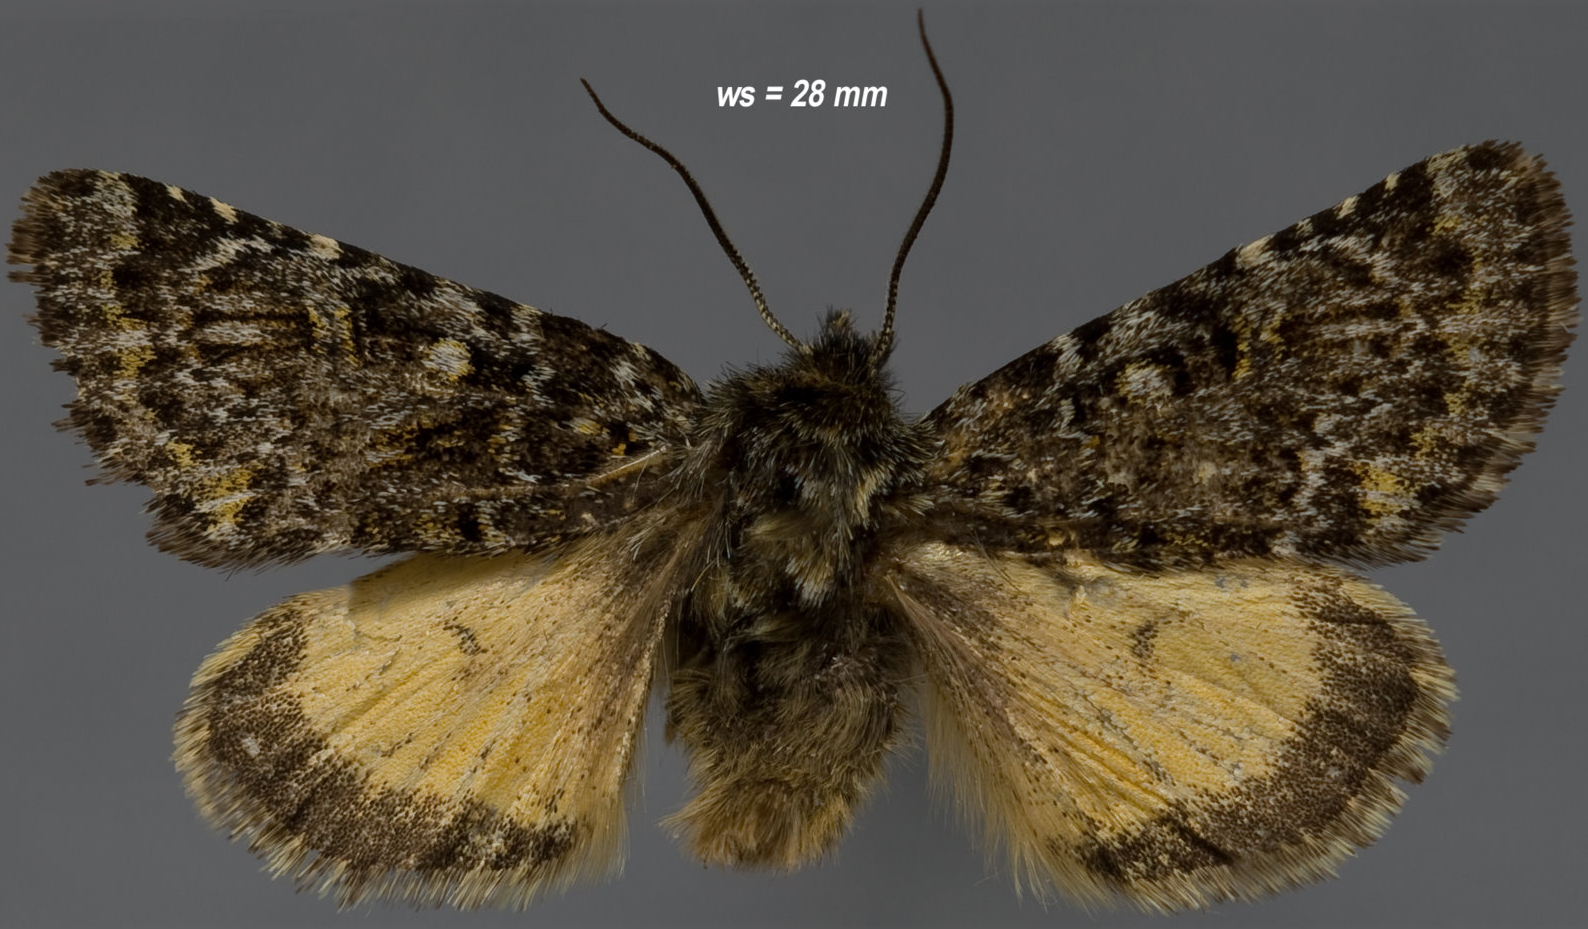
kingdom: Animalia
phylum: Arthropoda
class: Insecta
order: Lepidoptera
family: Noctuidae
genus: Lasionycta
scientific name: Lasionycta leucocycla
